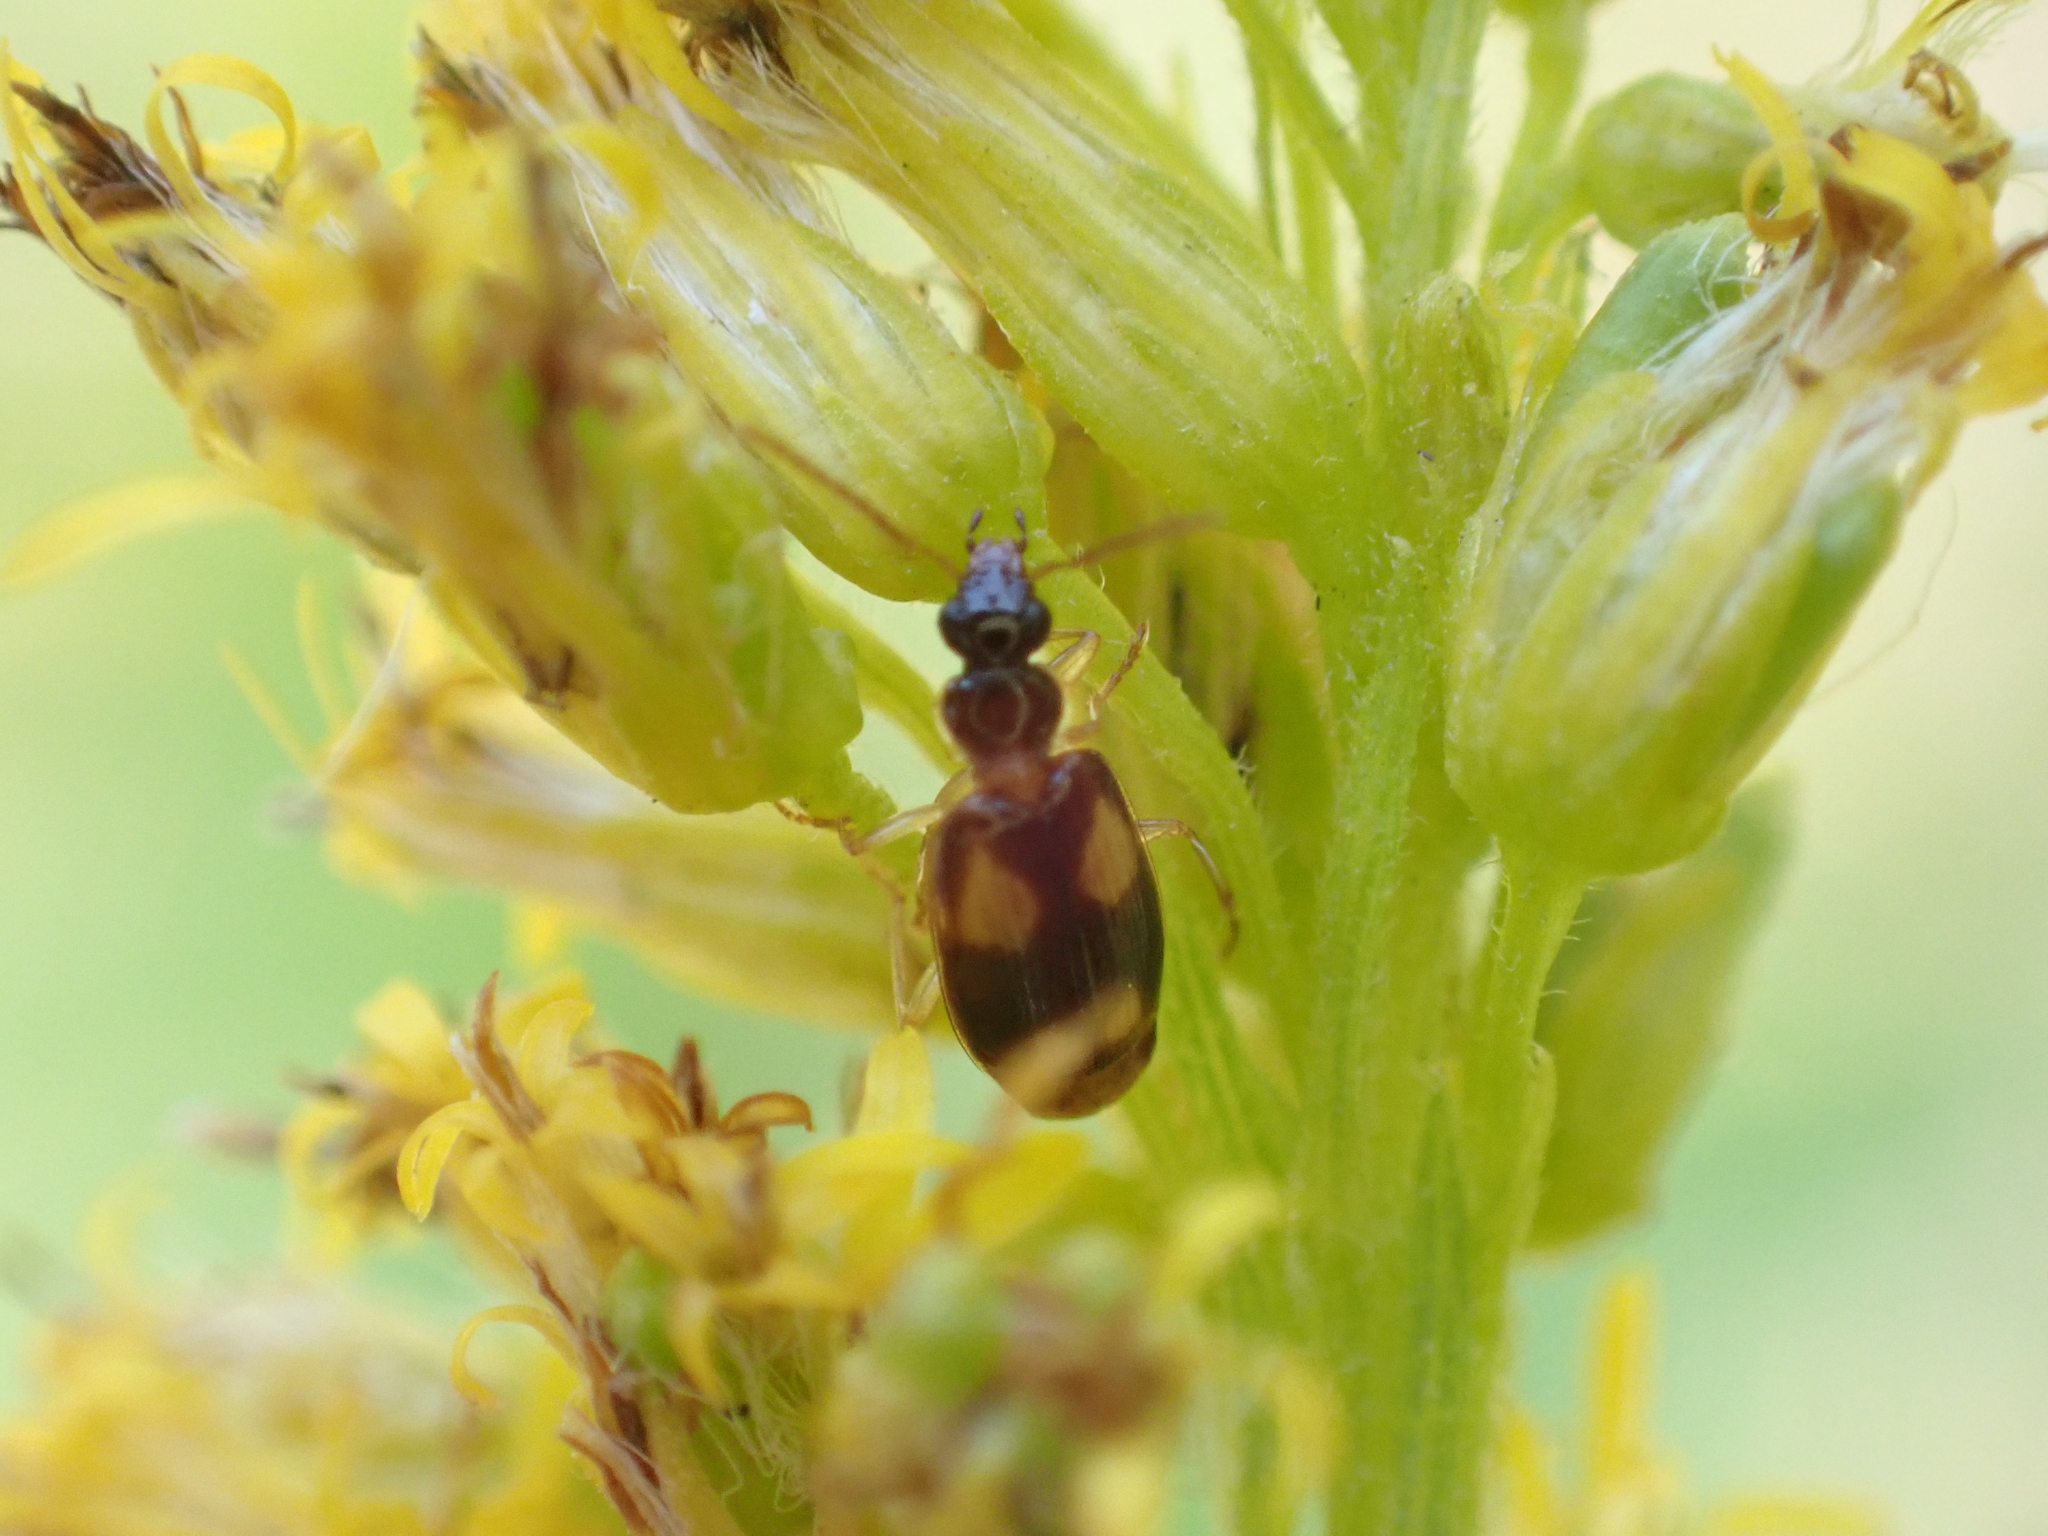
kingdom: Animalia
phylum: Arthropoda
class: Insecta
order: Coleoptera
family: Carabidae
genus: Lebia
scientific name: Lebia ornata
